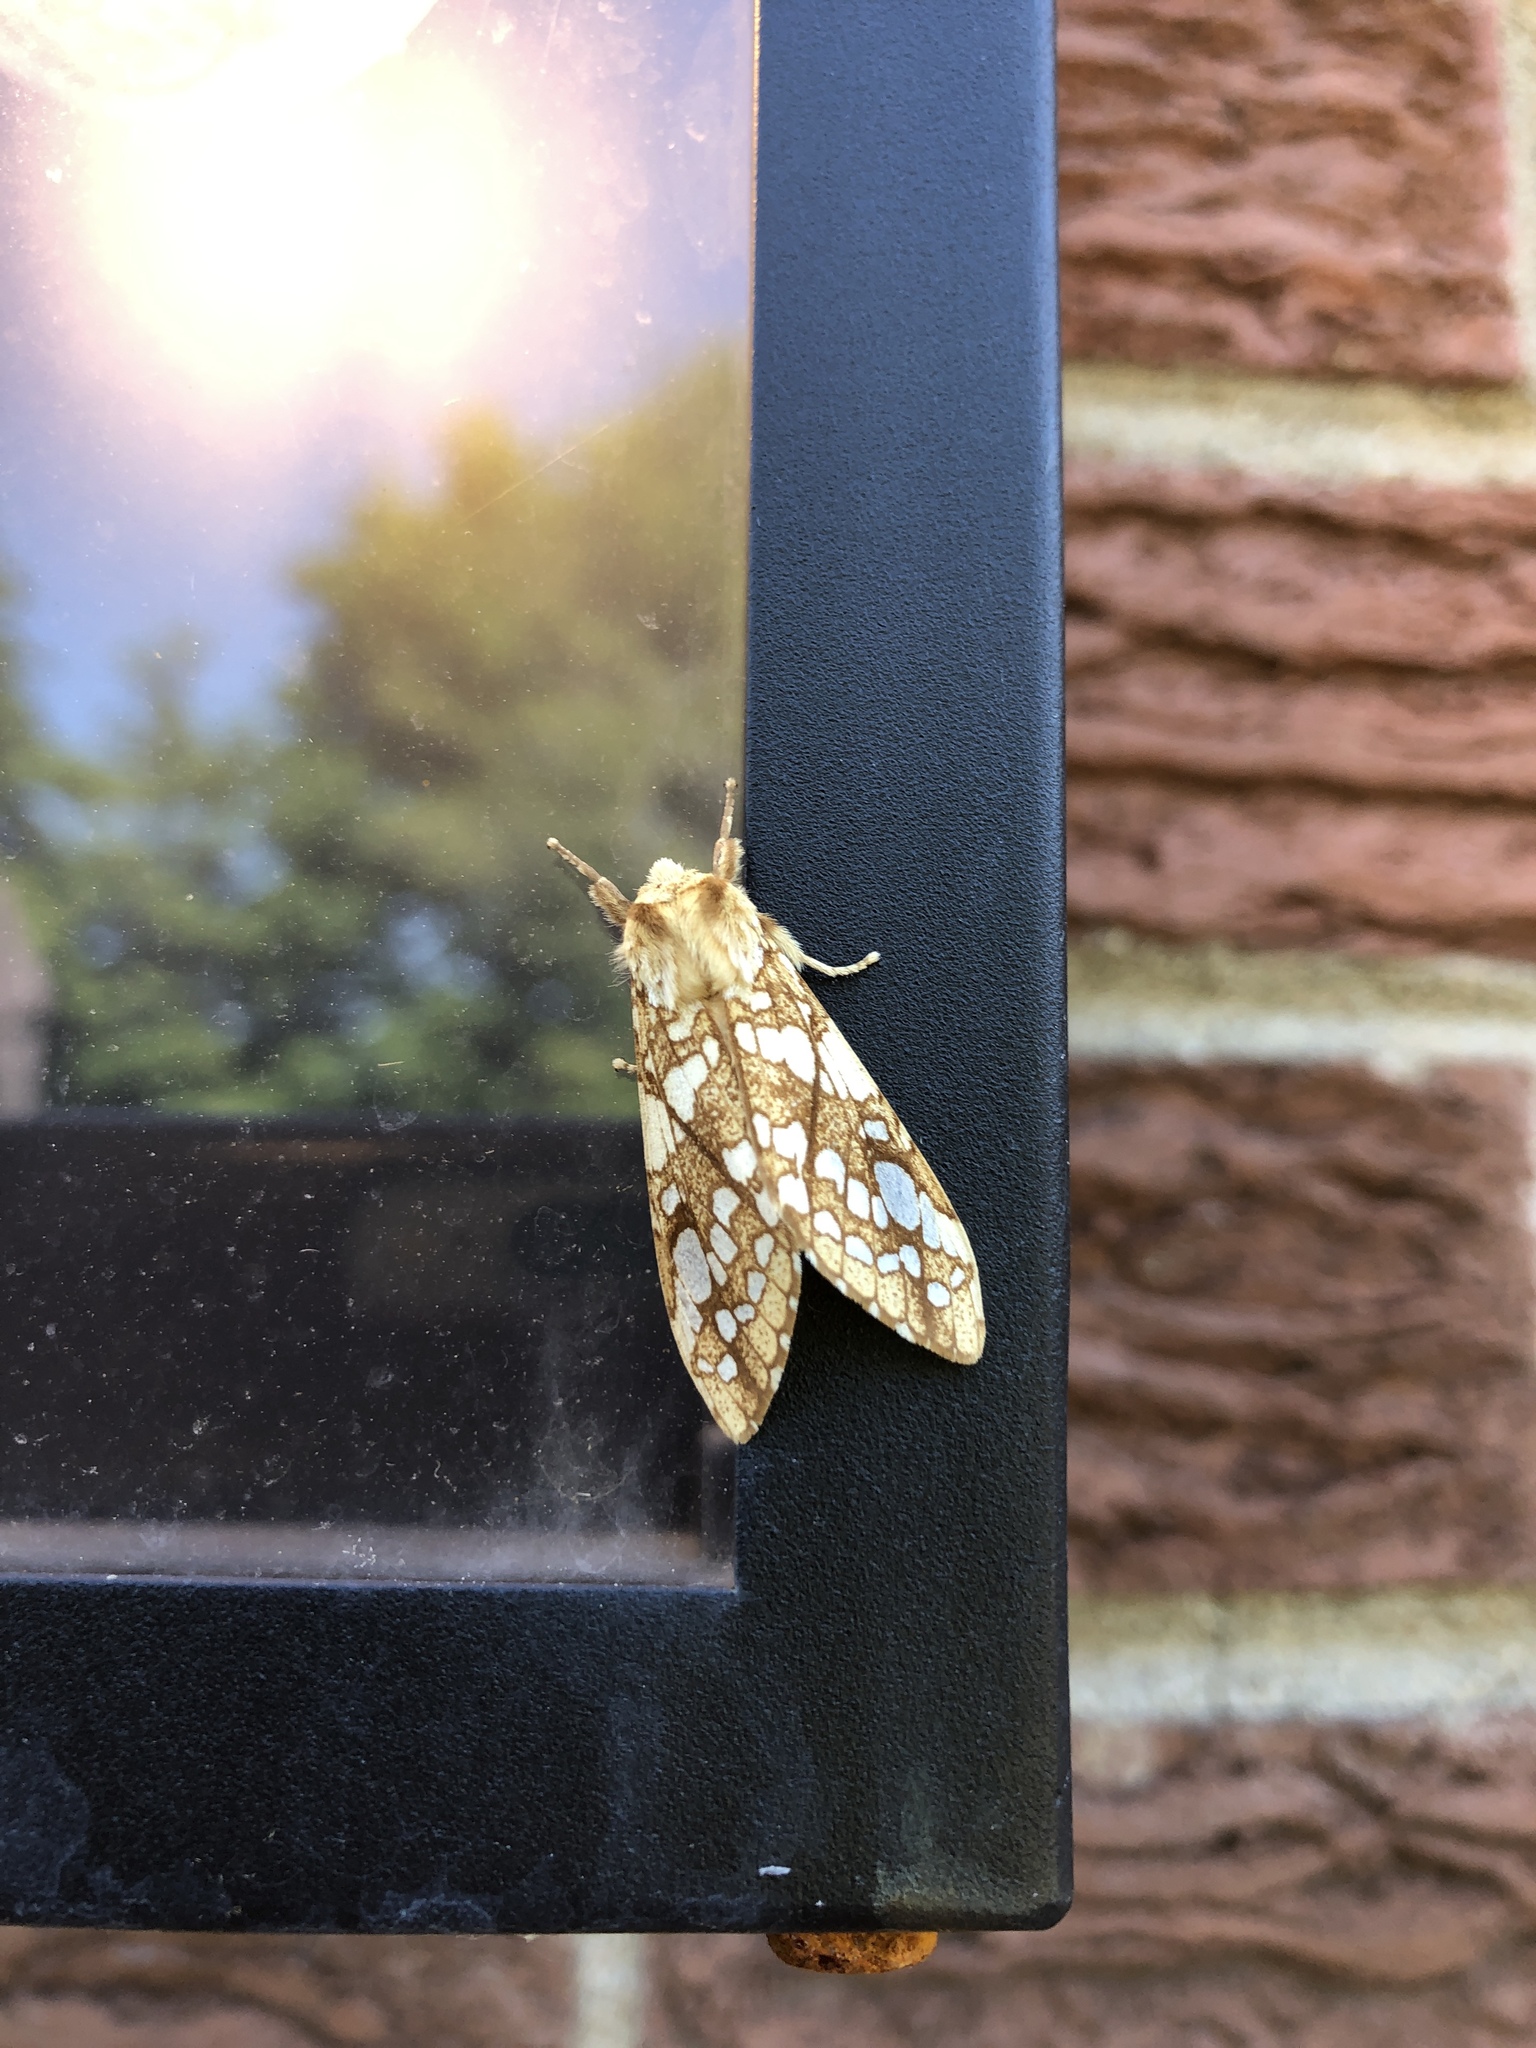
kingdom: Animalia
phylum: Arthropoda
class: Insecta
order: Lepidoptera
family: Erebidae
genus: Lophocampa
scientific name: Lophocampa caryae
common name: Hickory tussock moth
